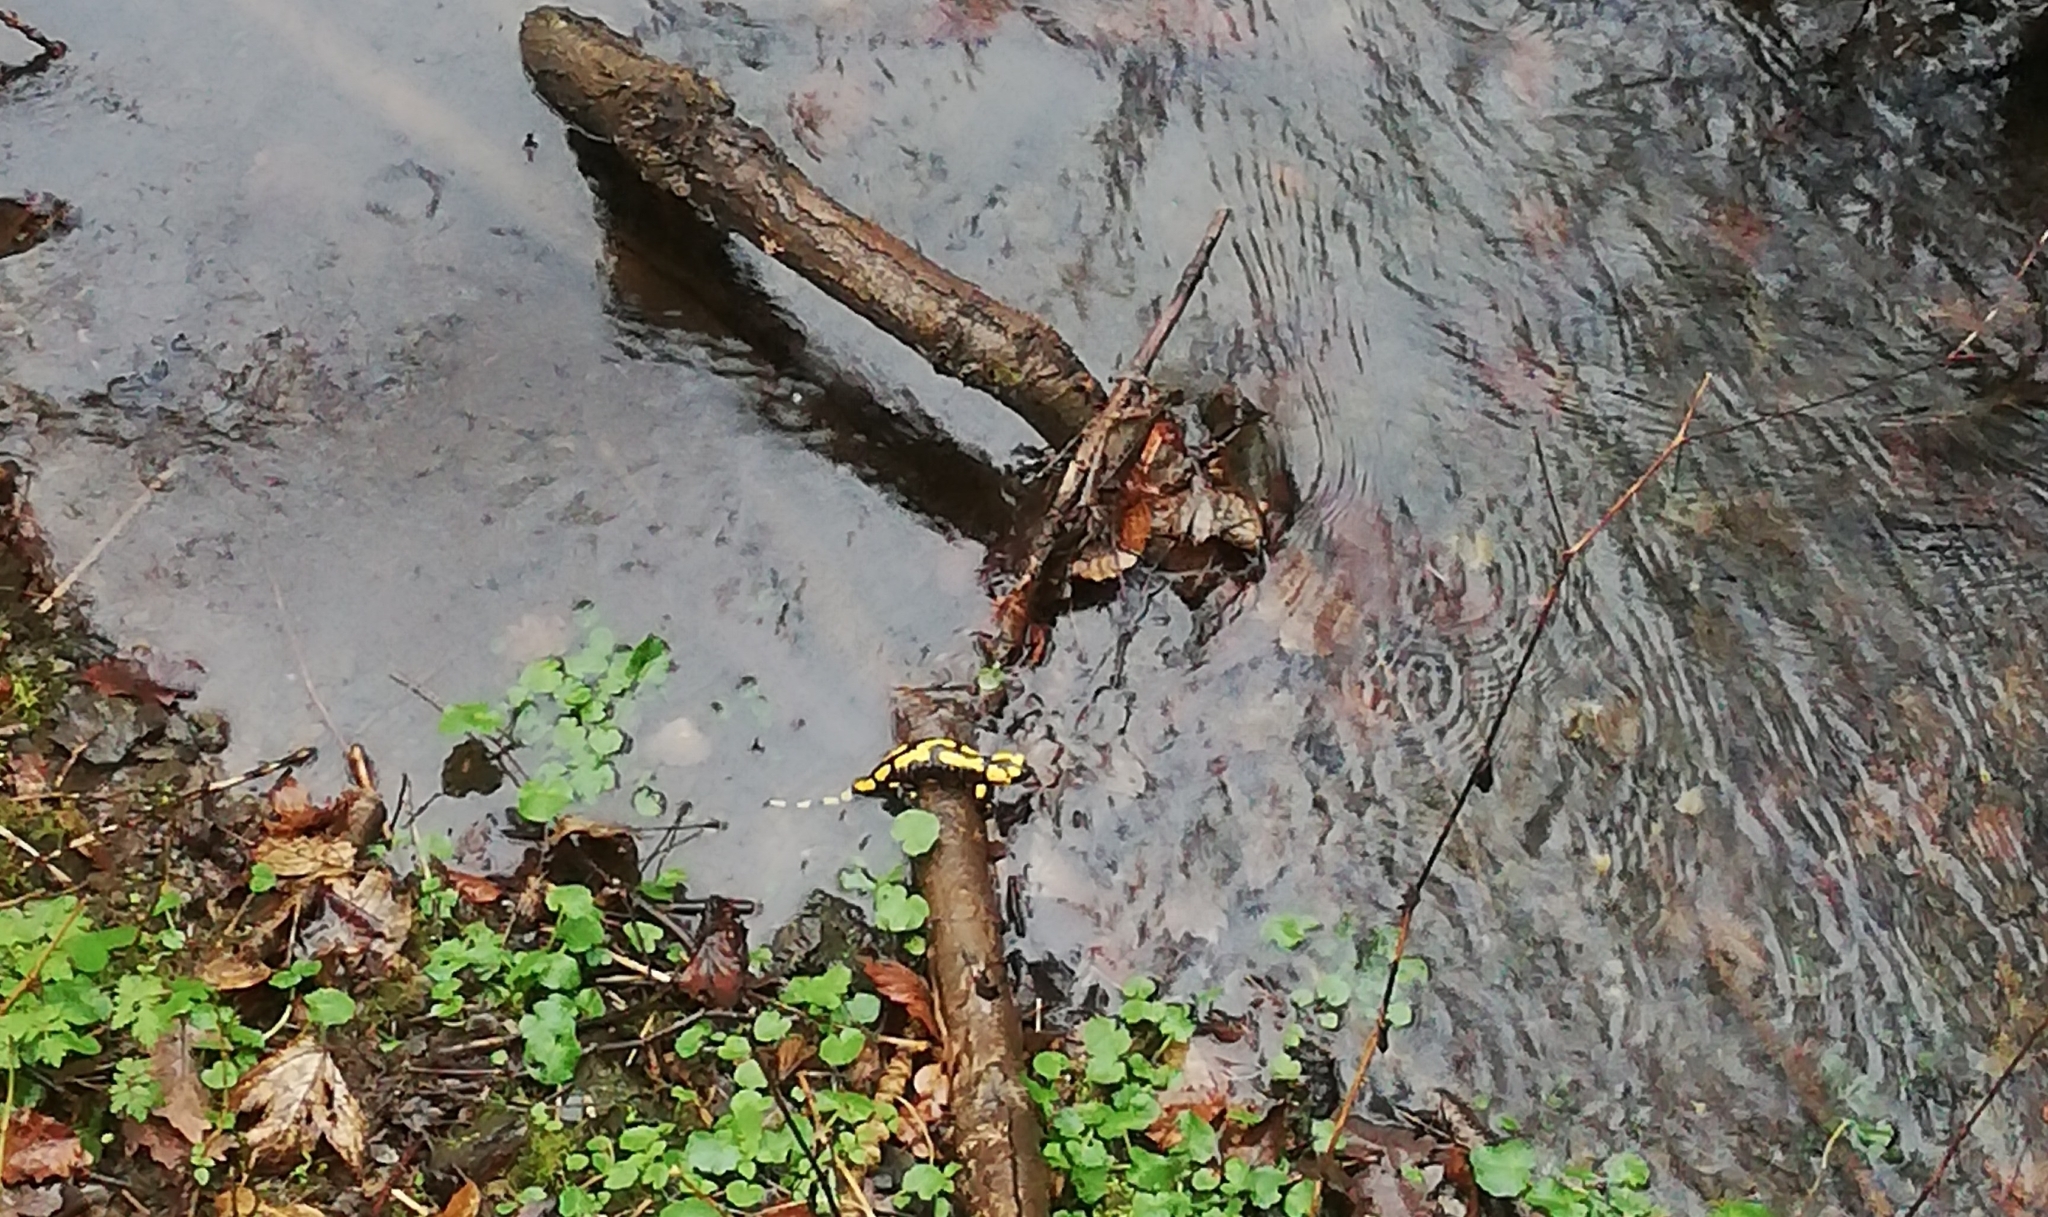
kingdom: Animalia
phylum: Chordata
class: Amphibia
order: Caudata
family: Salamandridae
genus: Salamandra
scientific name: Salamandra salamandra
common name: Fire salamander
